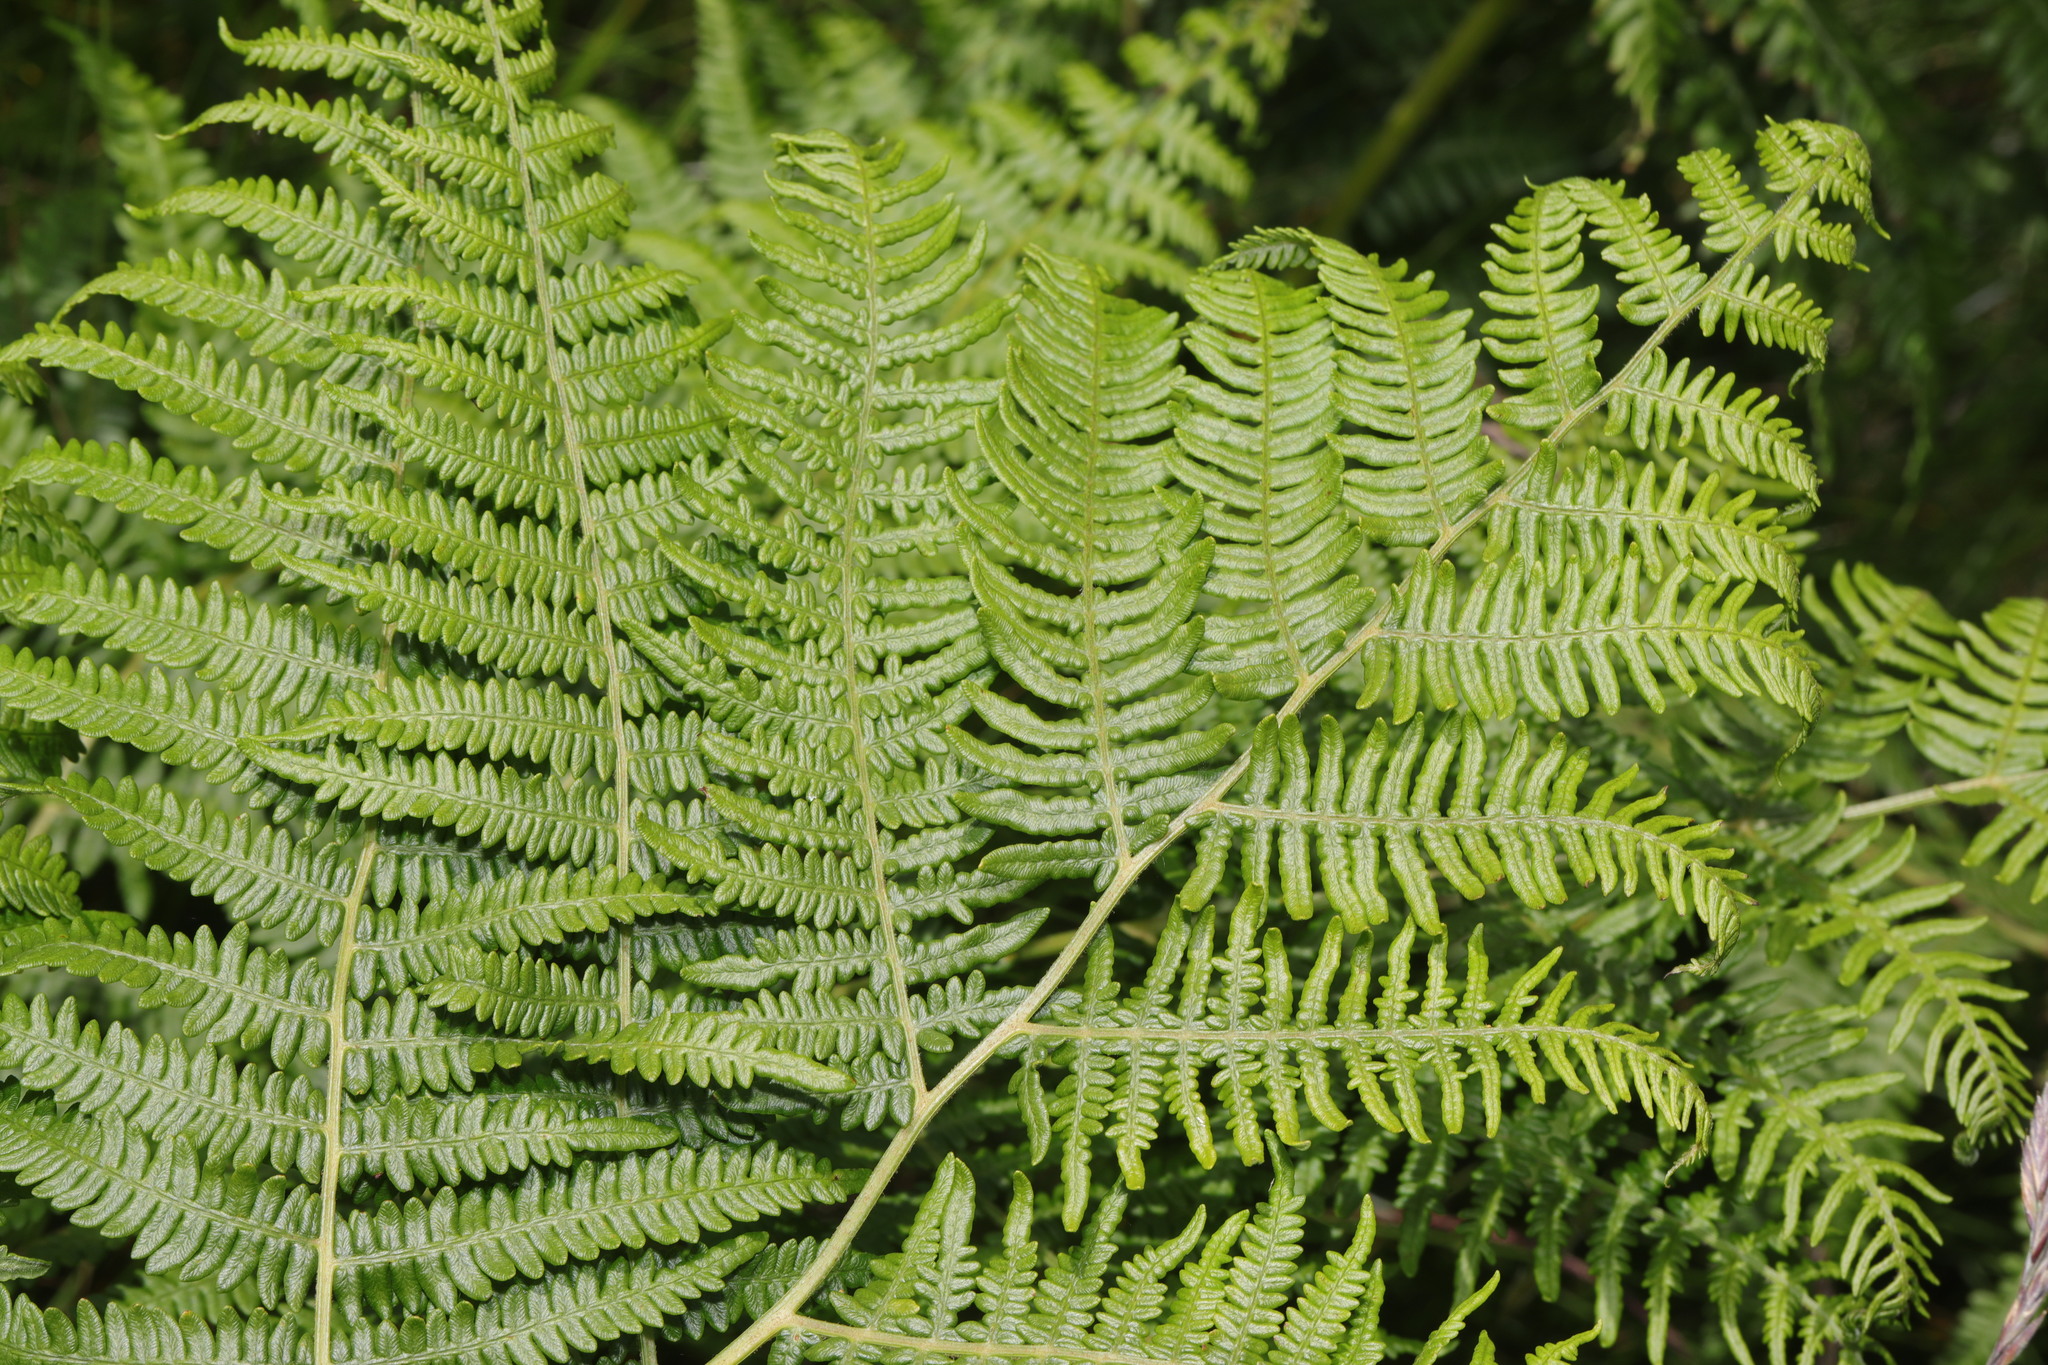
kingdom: Plantae
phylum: Tracheophyta
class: Polypodiopsida
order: Polypodiales
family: Dennstaedtiaceae
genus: Pteridium
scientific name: Pteridium aquilinum
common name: Bracken
